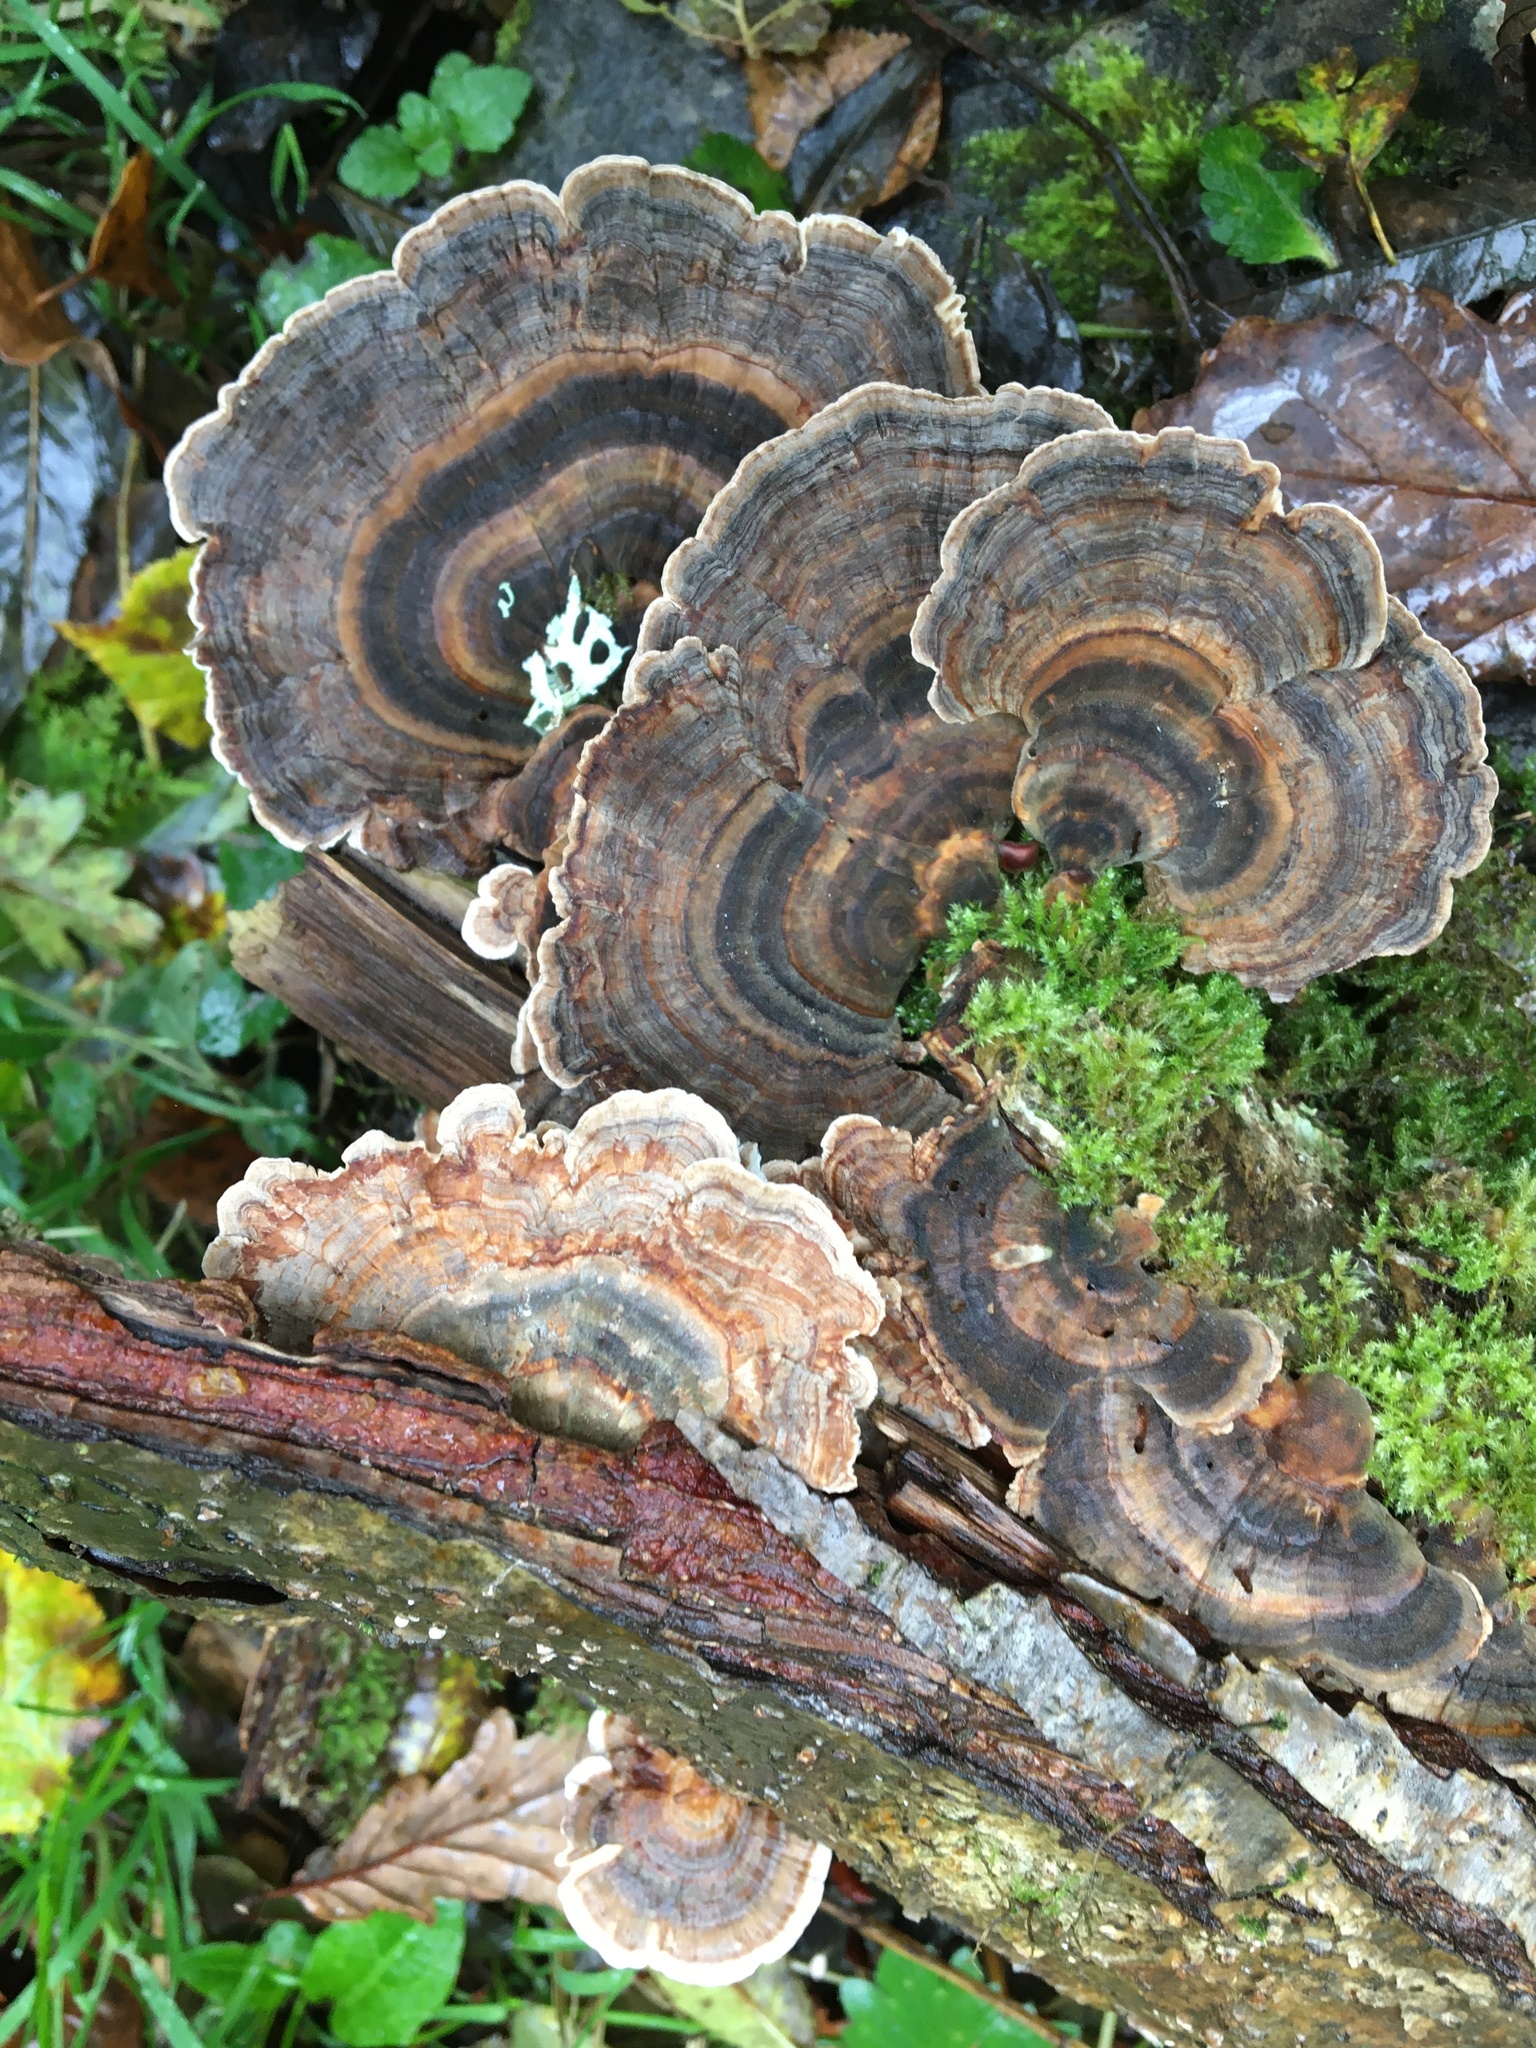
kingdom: Fungi
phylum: Basidiomycota
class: Agaricomycetes
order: Polyporales
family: Polyporaceae
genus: Trametes
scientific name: Trametes versicolor
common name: Turkeytail
